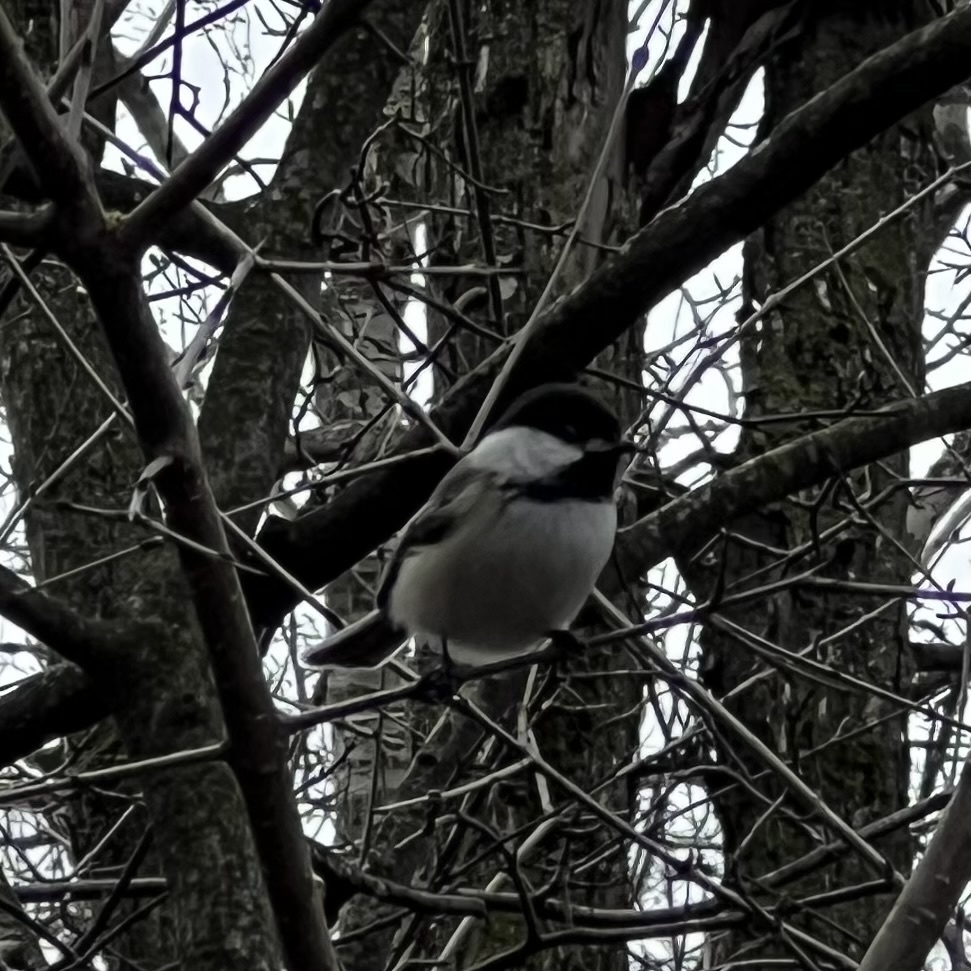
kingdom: Animalia
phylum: Chordata
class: Aves
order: Passeriformes
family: Paridae
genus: Poecile
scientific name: Poecile atricapillus
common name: Black-capped chickadee
